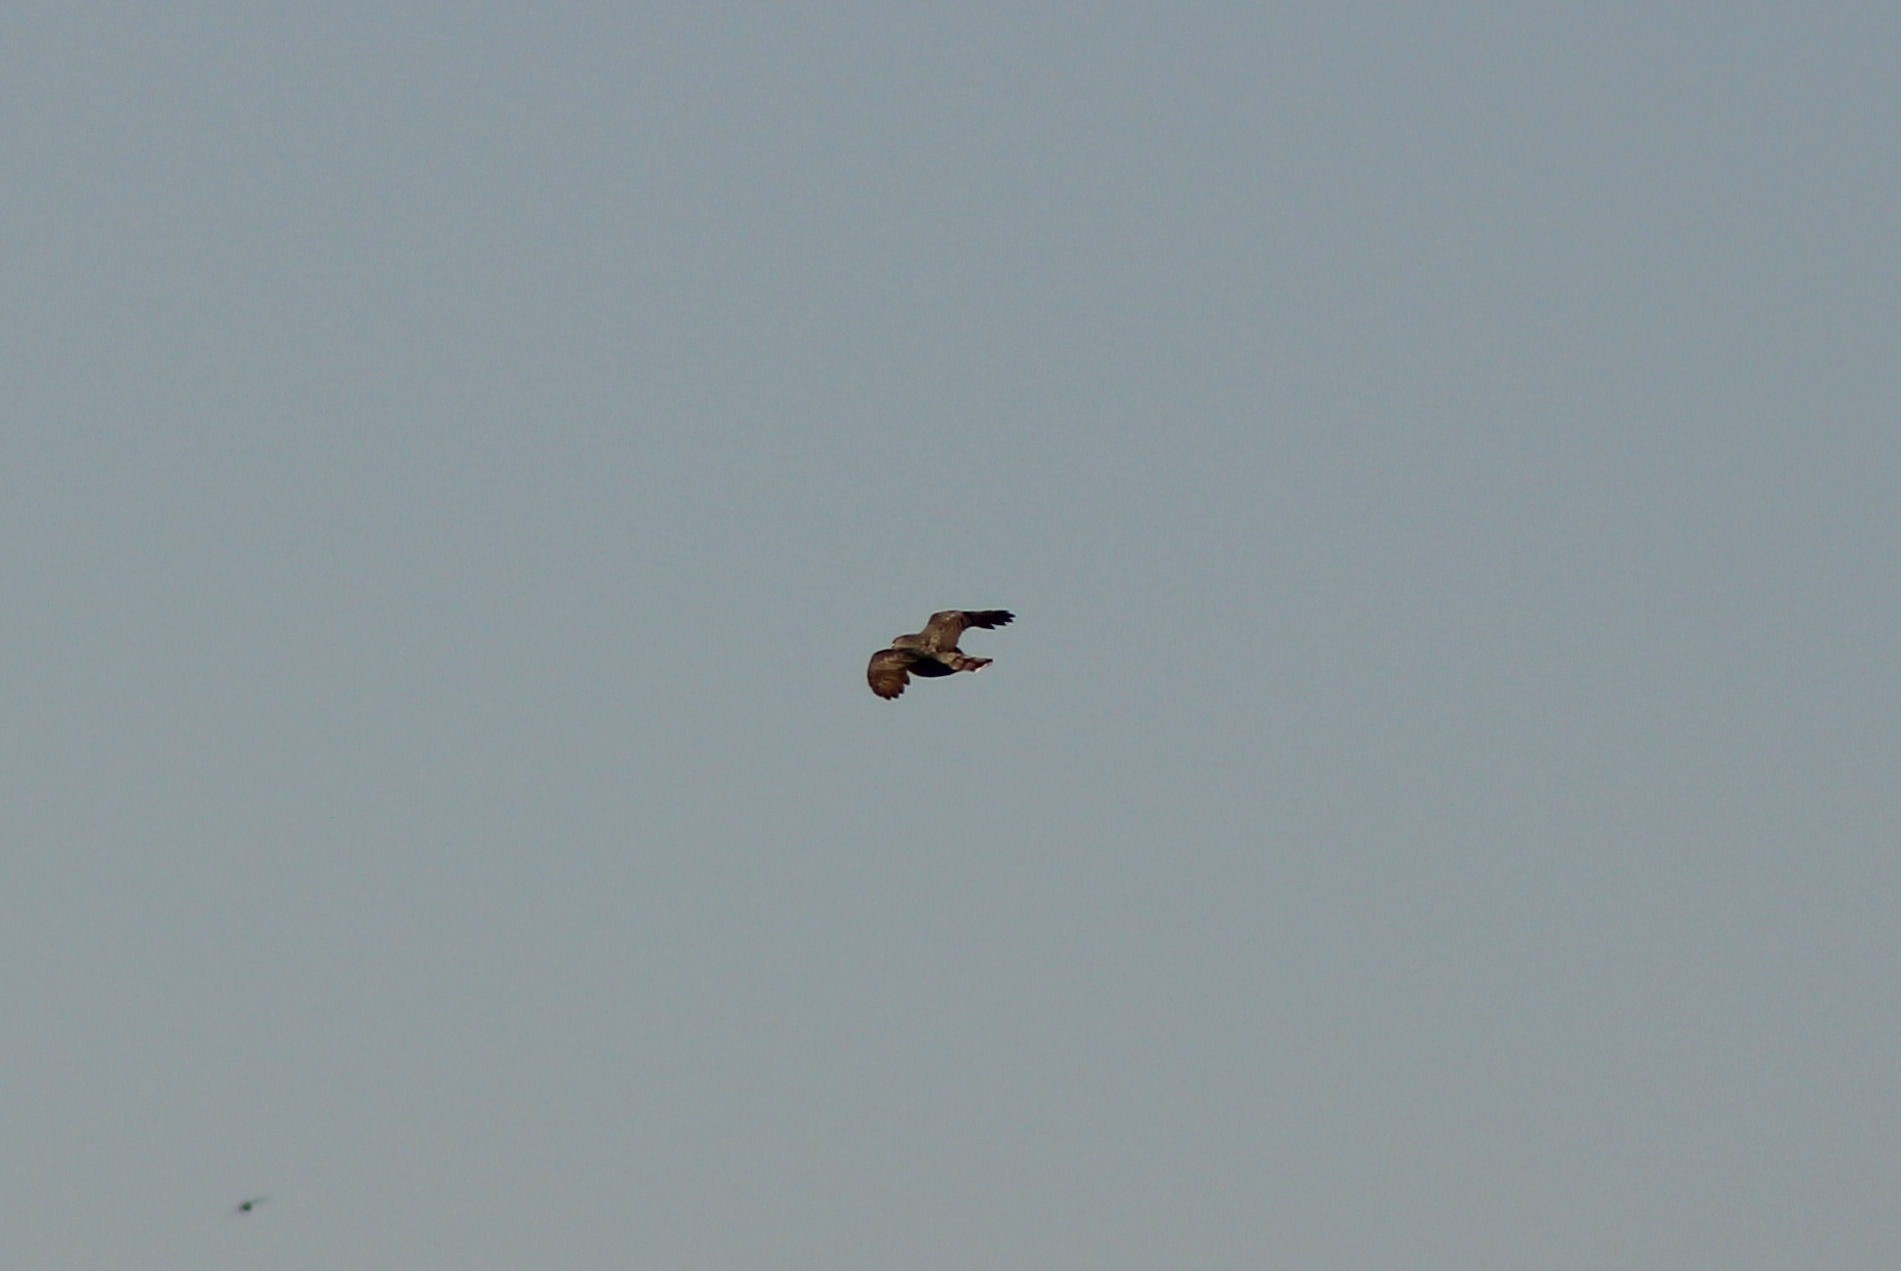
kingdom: Animalia
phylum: Chordata
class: Aves
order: Accipitriformes
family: Accipitridae
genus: Accipiter
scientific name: Accipiter cooperii
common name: Cooper's hawk
